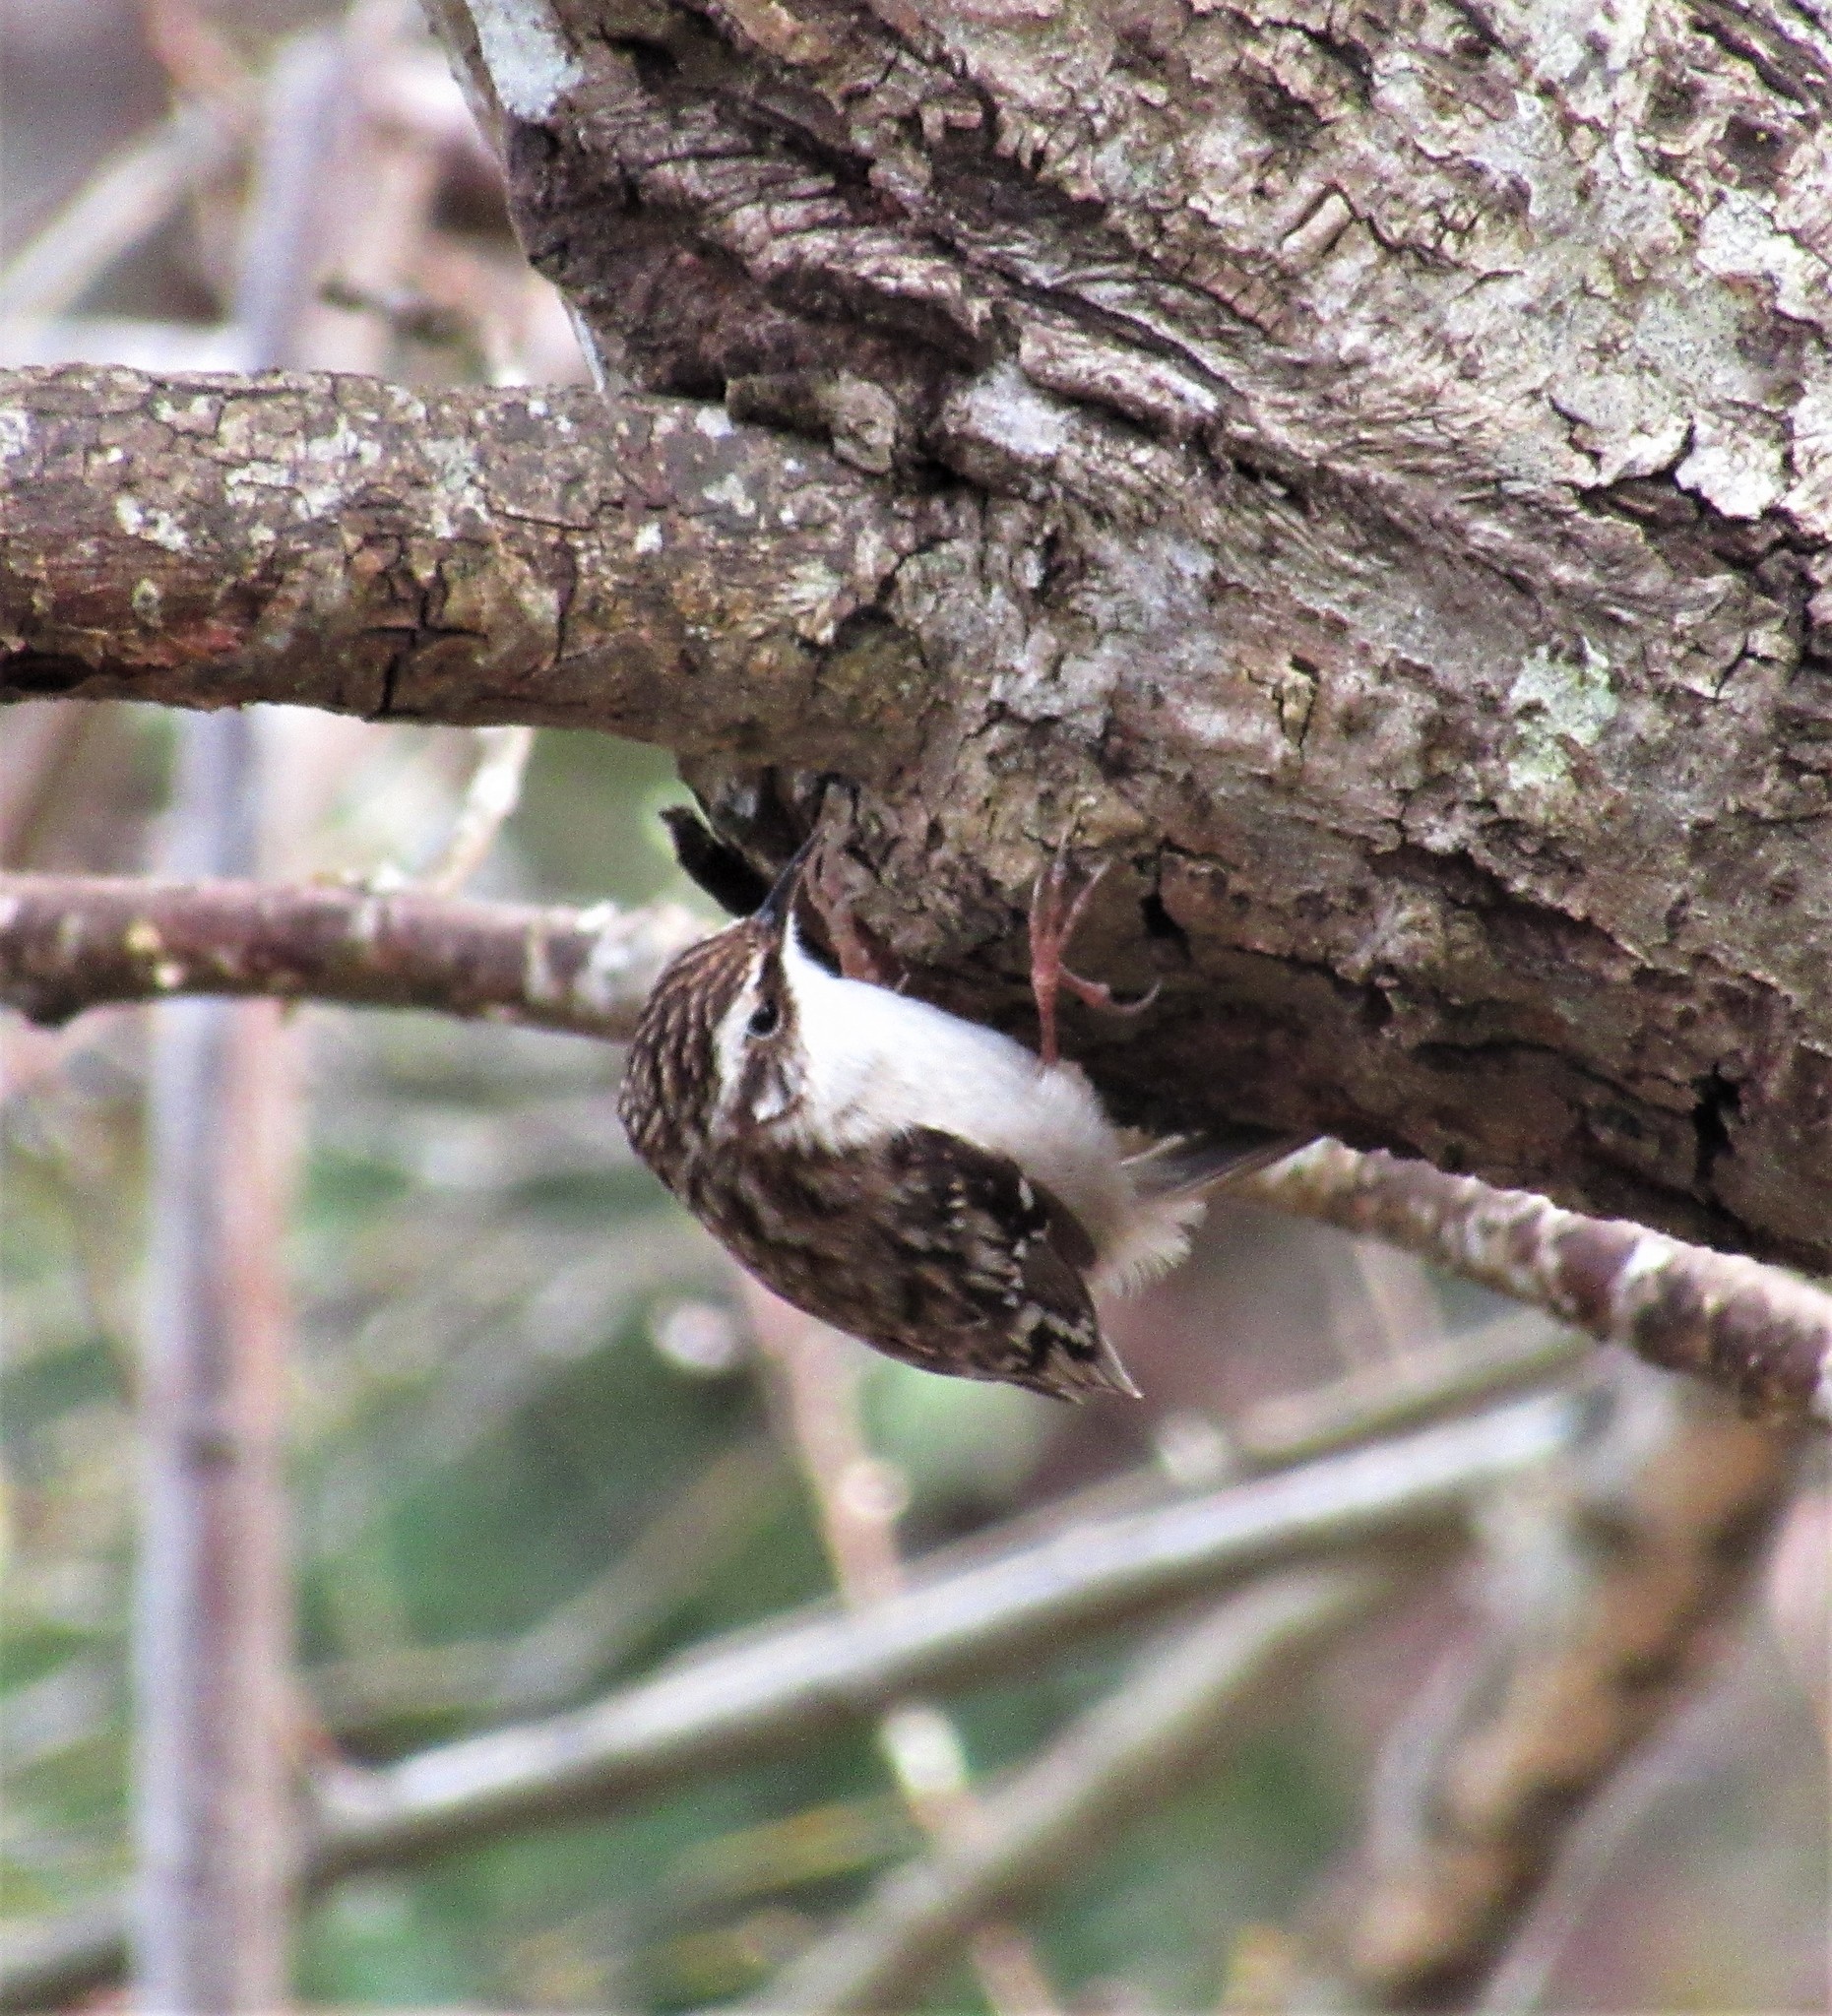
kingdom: Animalia
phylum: Chordata
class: Aves
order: Passeriformes
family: Certhiidae
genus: Certhia
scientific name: Certhia americana
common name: Brown creeper
